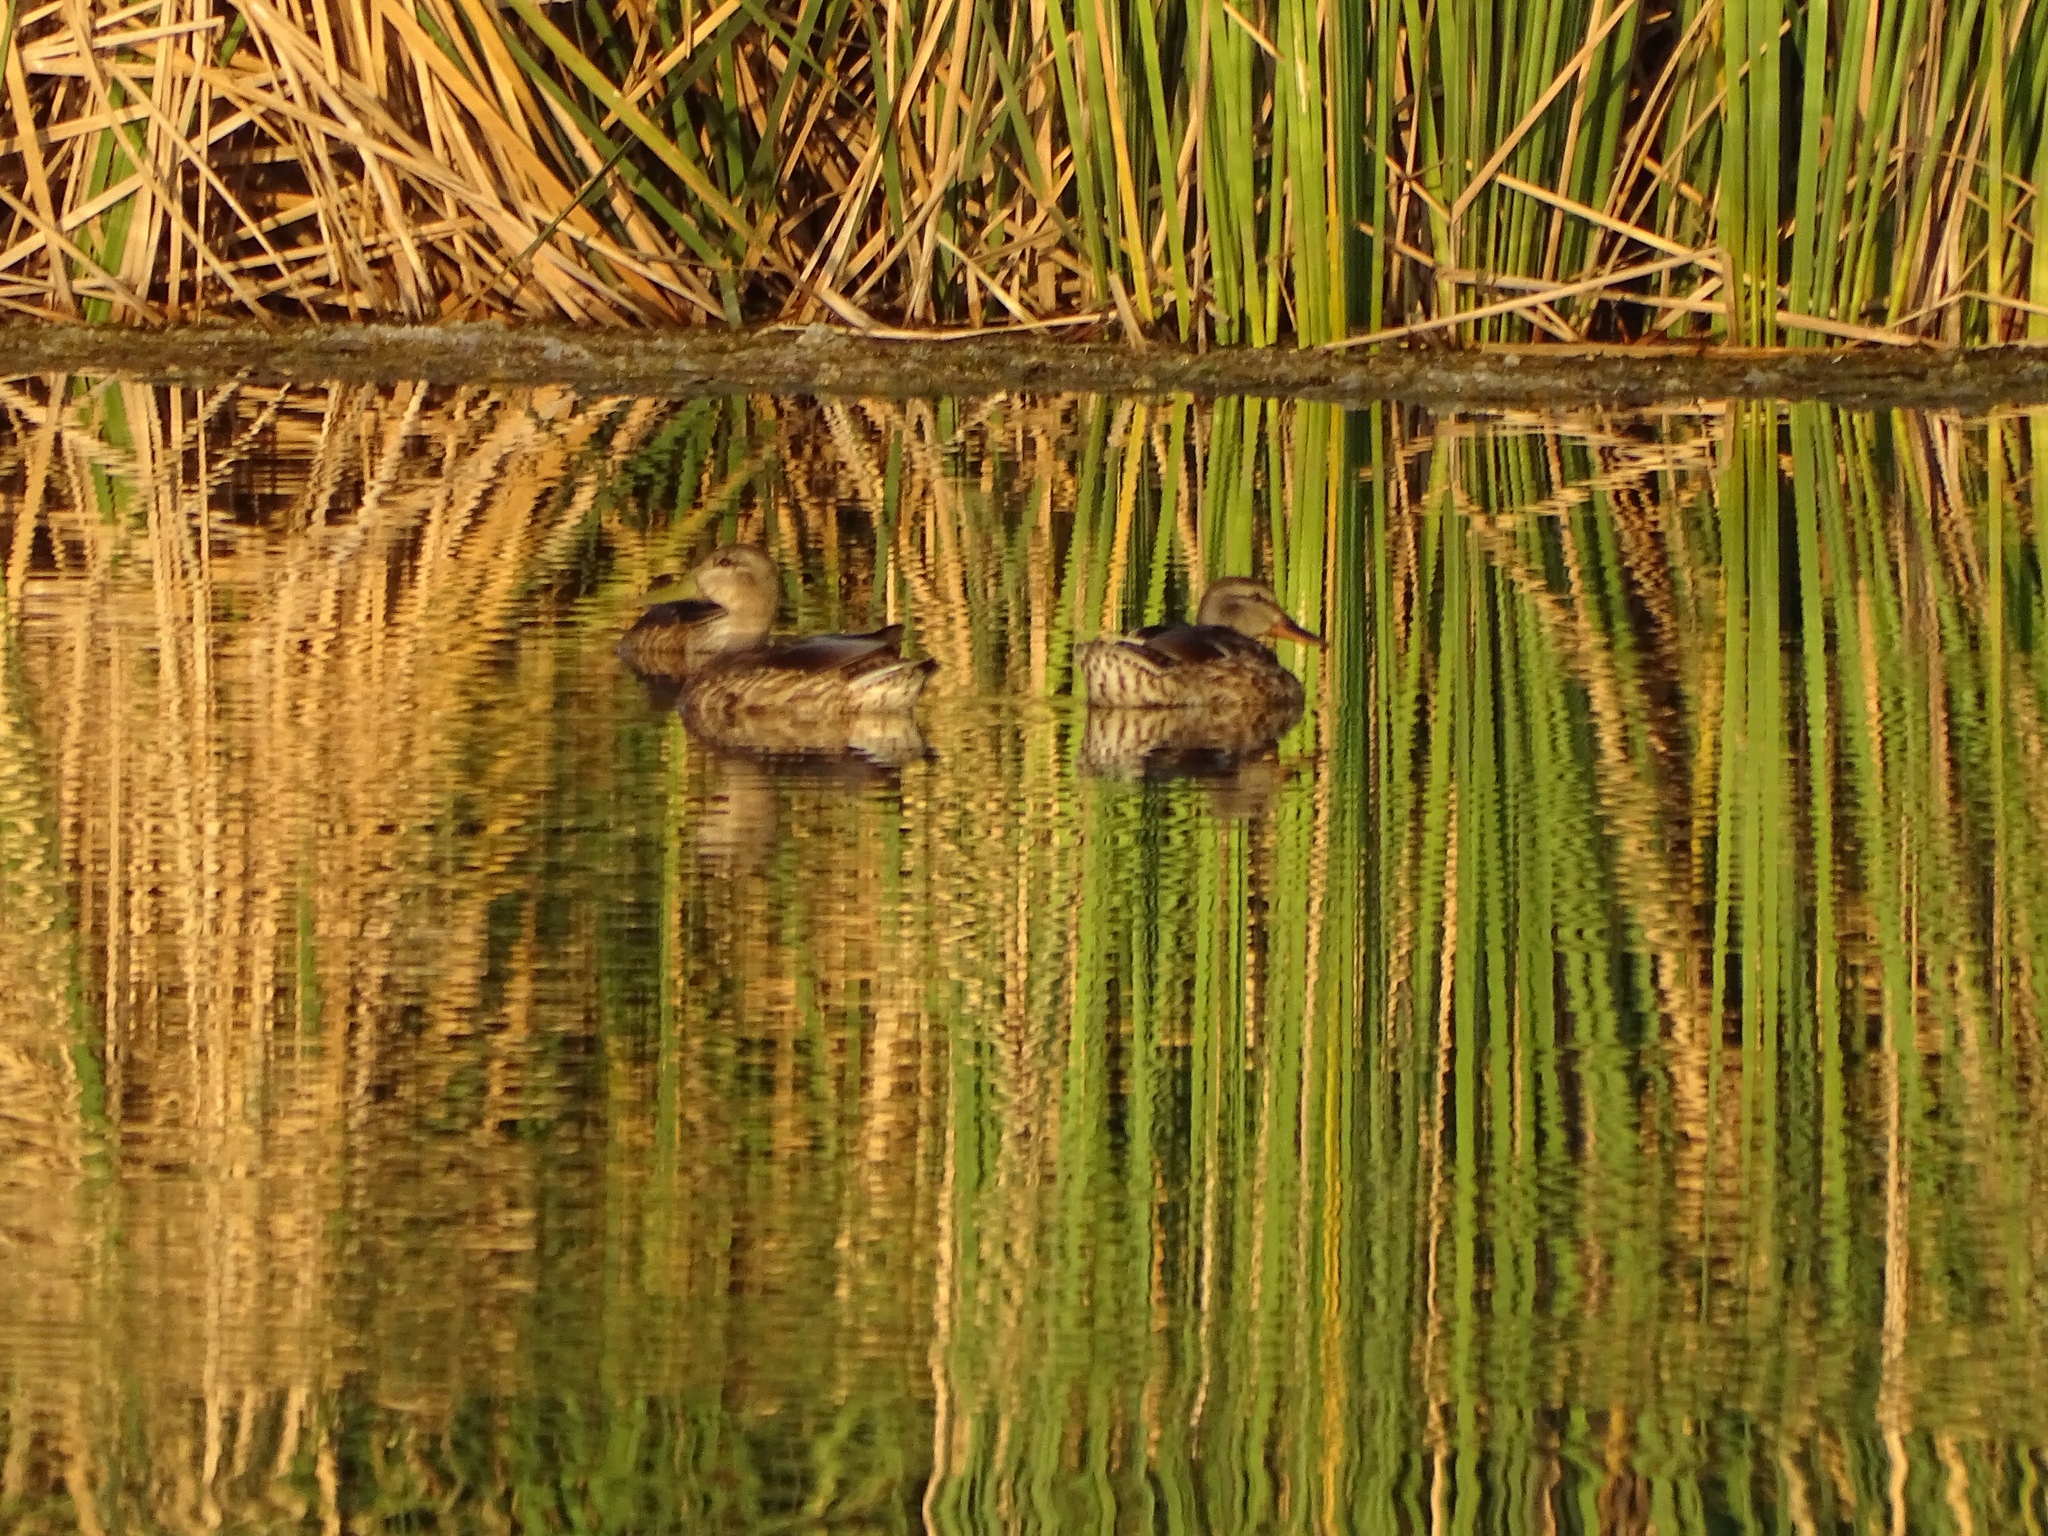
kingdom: Animalia
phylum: Chordata
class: Aves
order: Anseriformes
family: Anatidae
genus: Spatula
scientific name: Spatula cyanoptera
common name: Cinnamon teal
